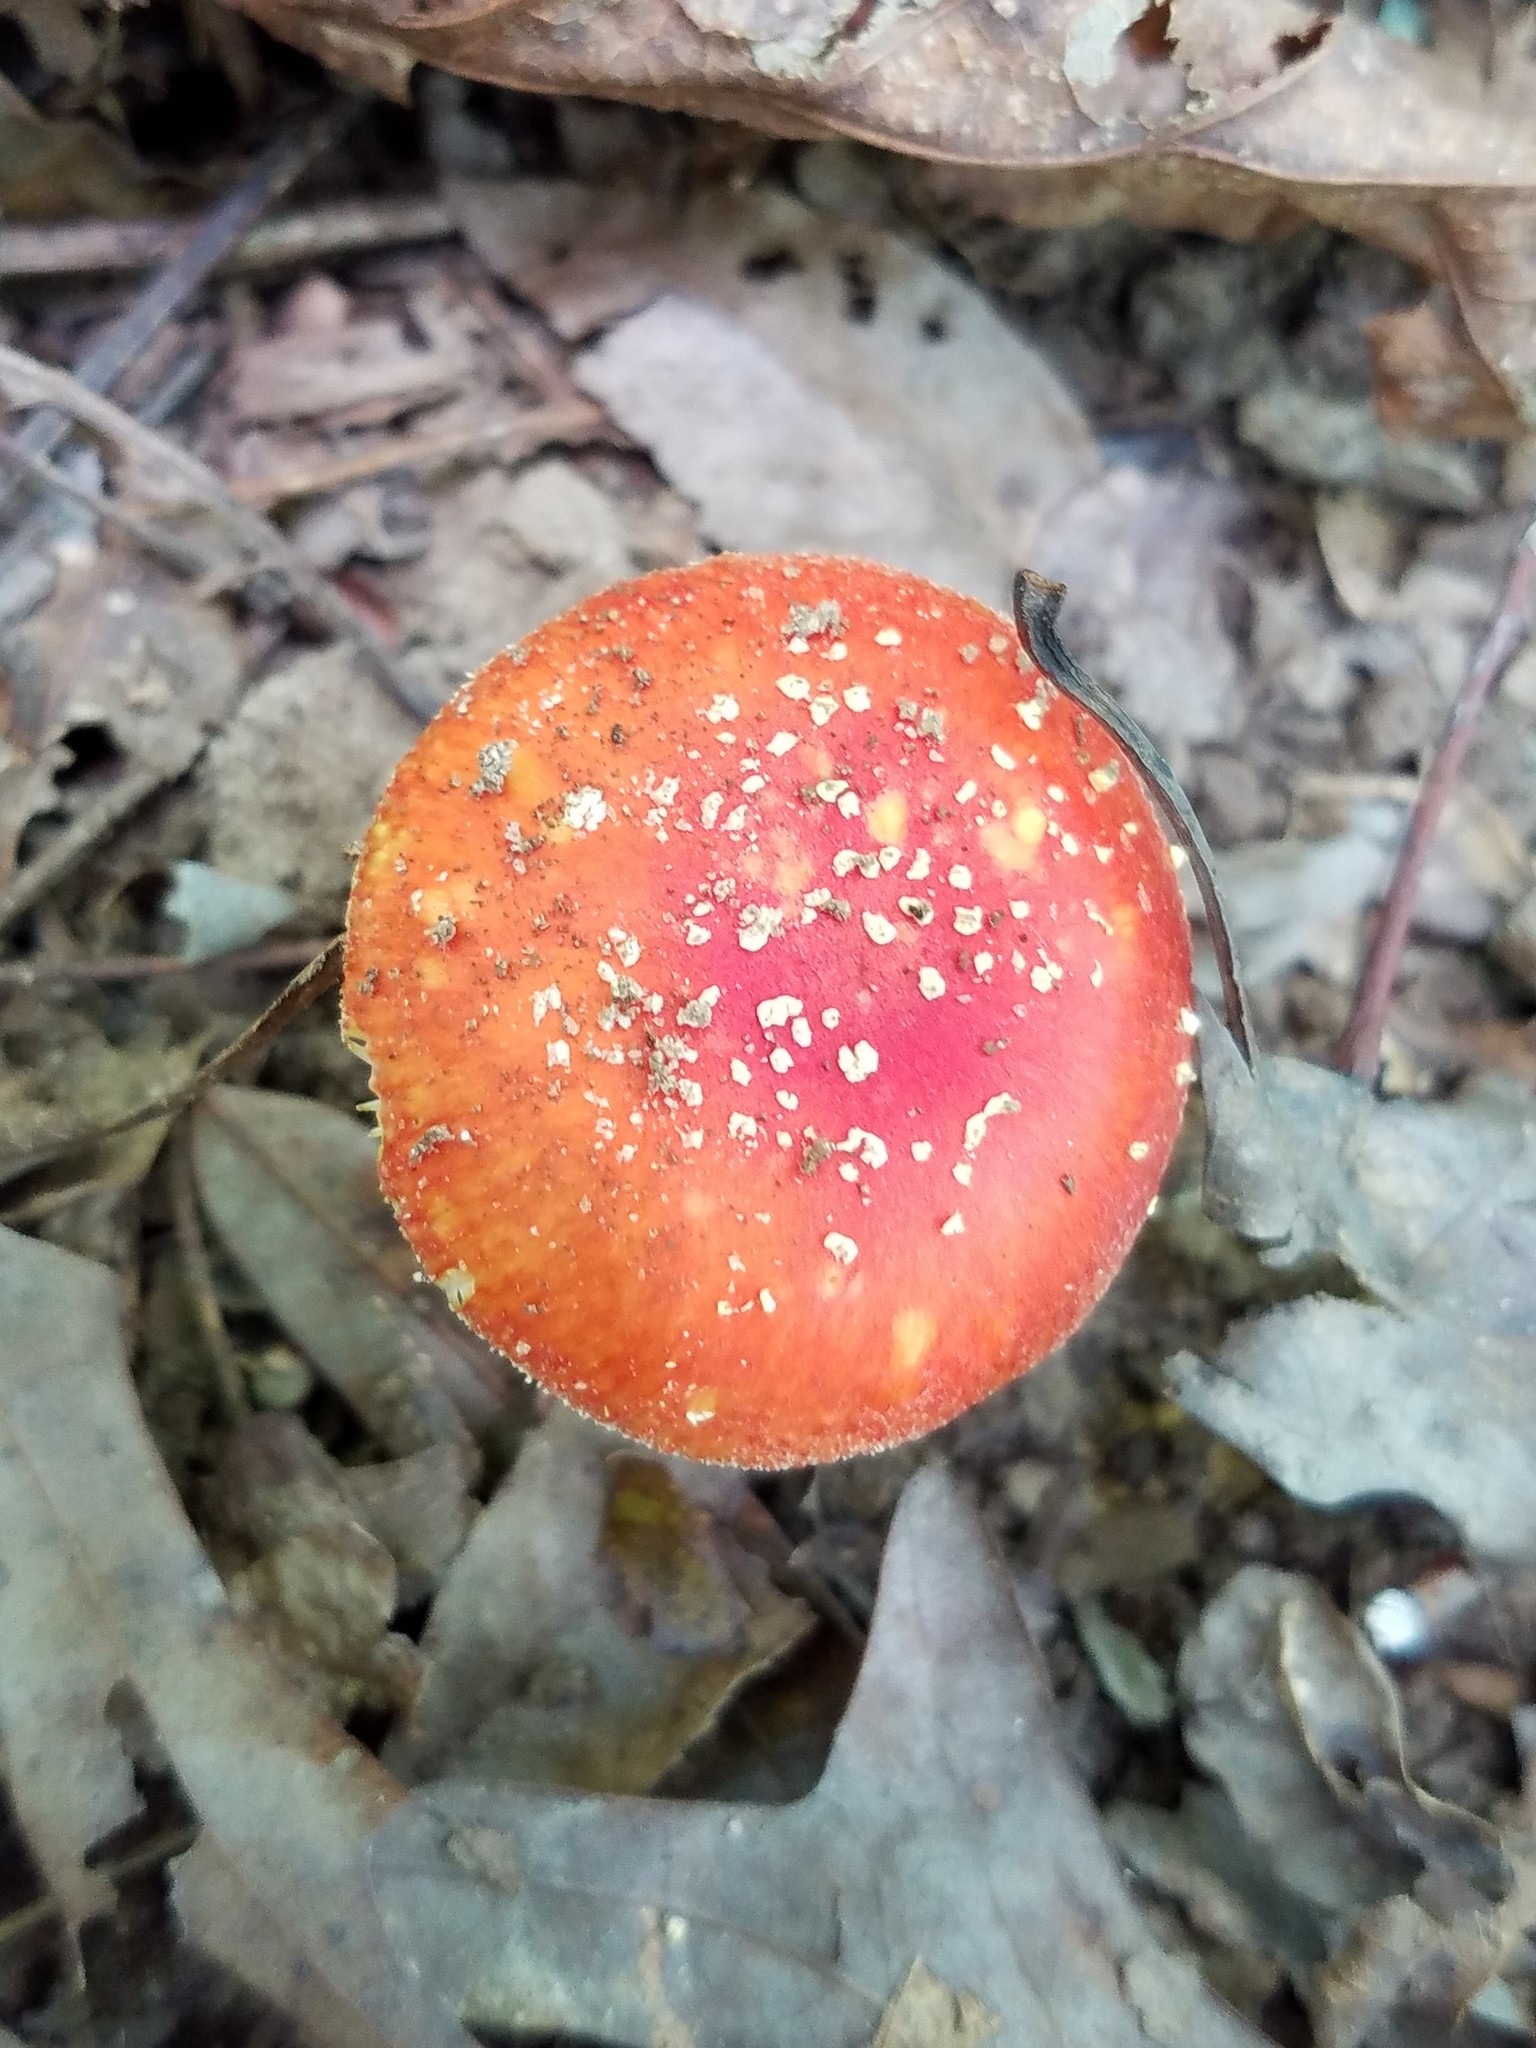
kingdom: Fungi
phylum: Basidiomycota
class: Agaricomycetes
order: Agaricales
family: Amanitaceae
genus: Amanita
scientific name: Amanita parcivolvata
